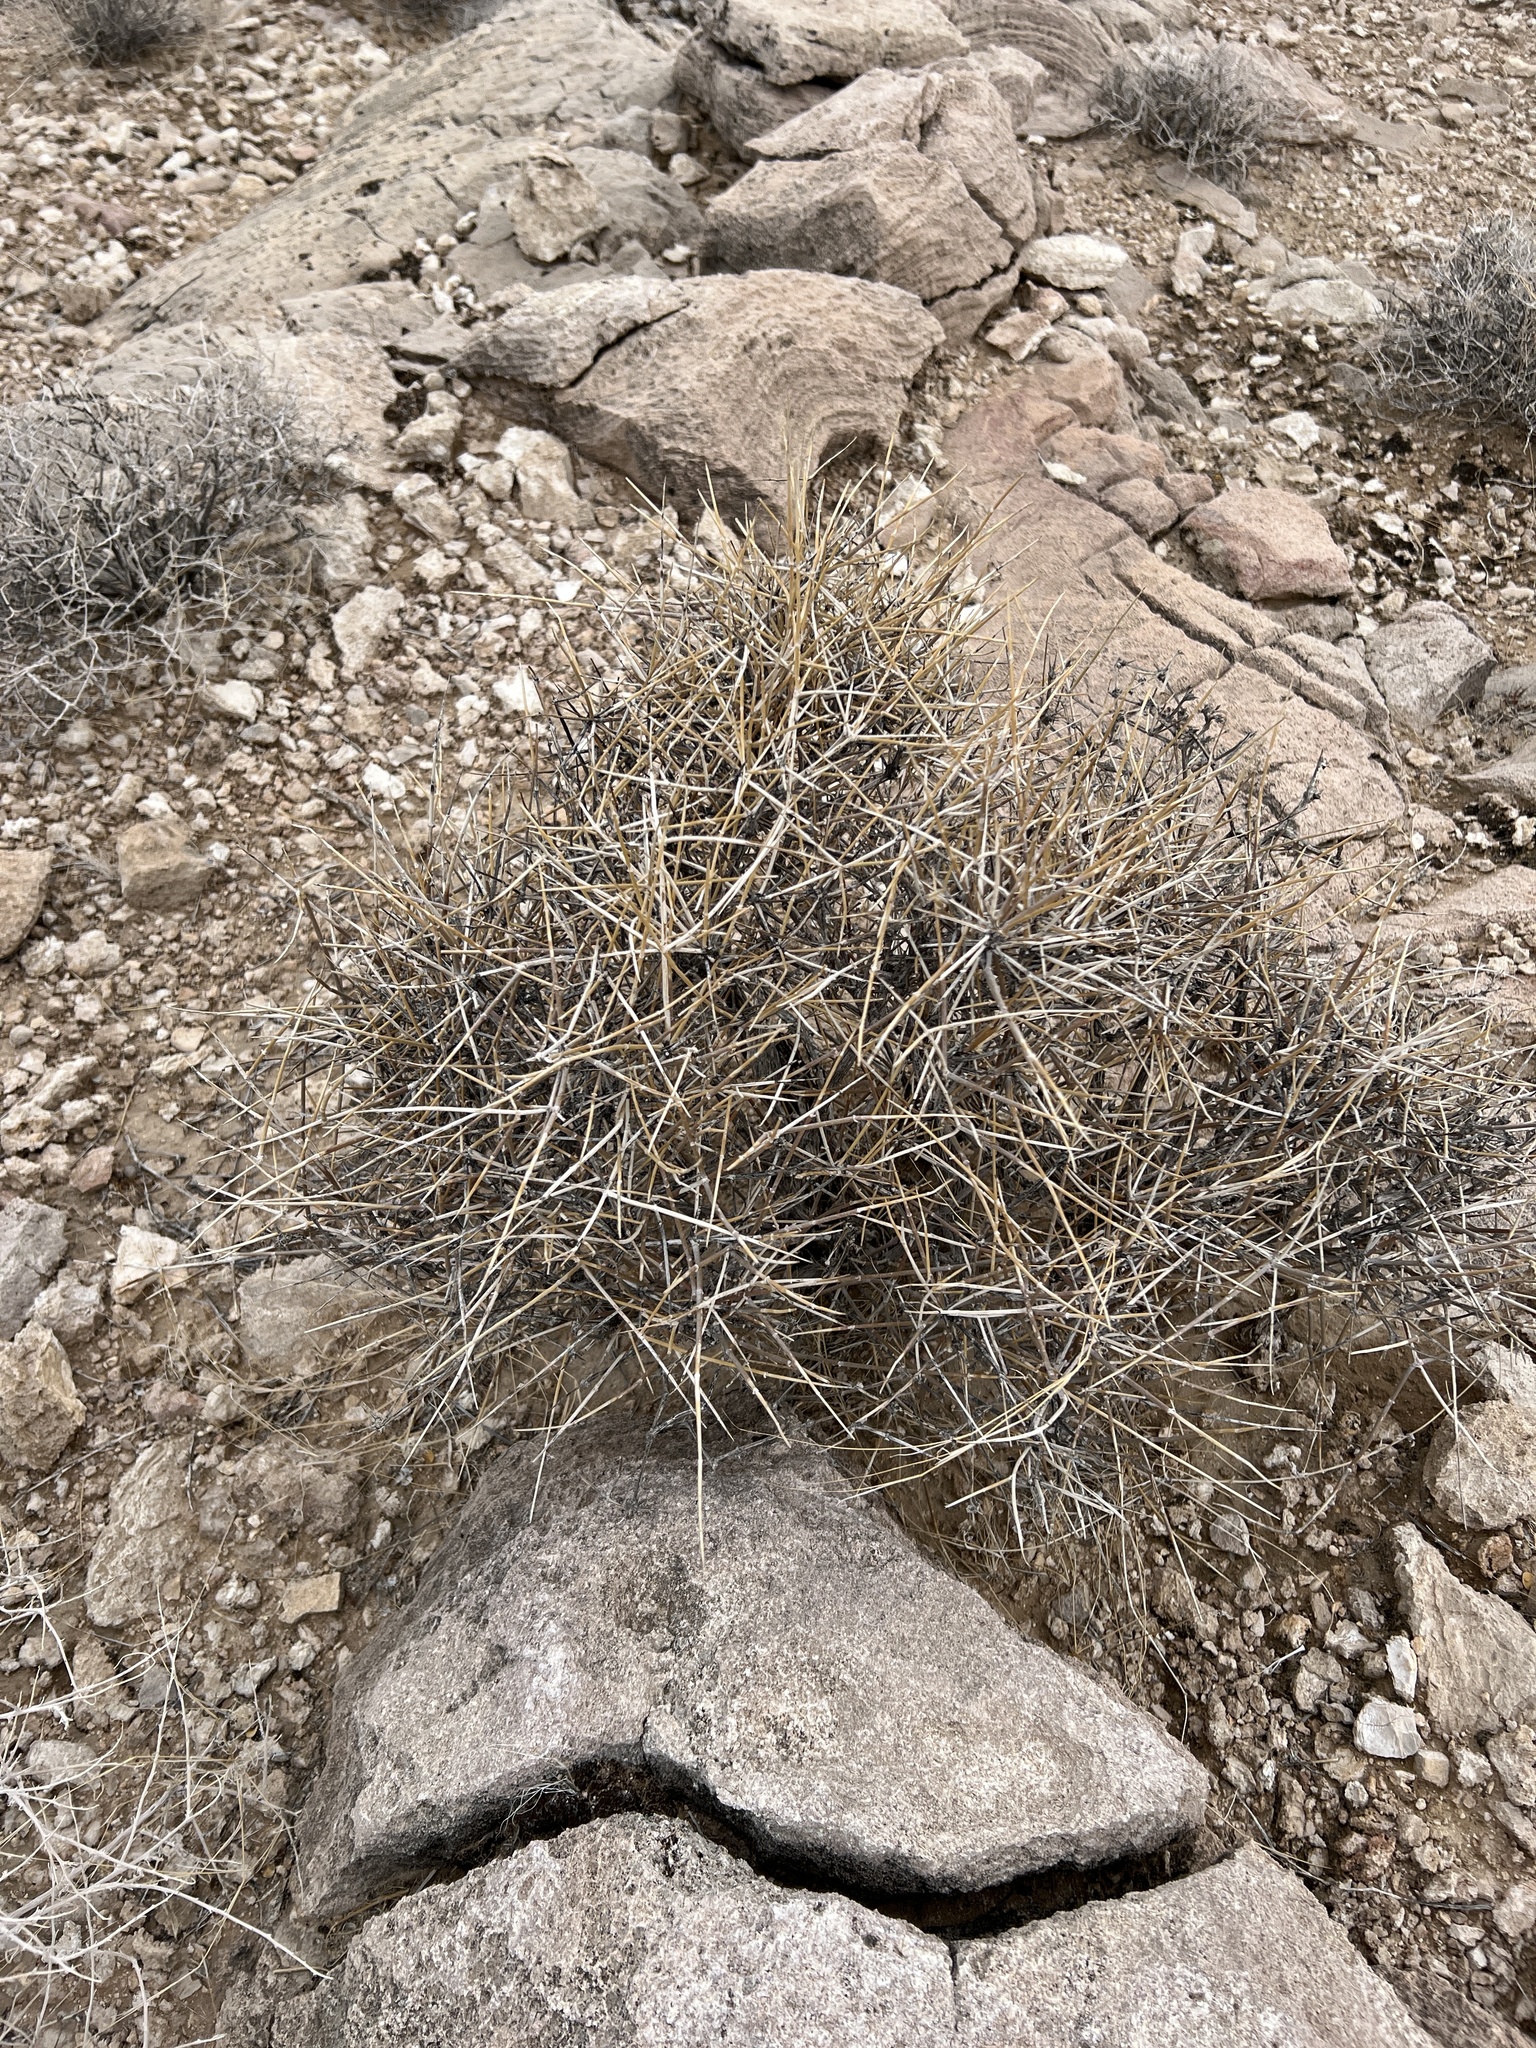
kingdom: Plantae
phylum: Tracheophyta
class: Gnetopsida
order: Ephedrales
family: Ephedraceae
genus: Ephedra
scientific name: Ephedra nevadensis
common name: Gray ephedra
